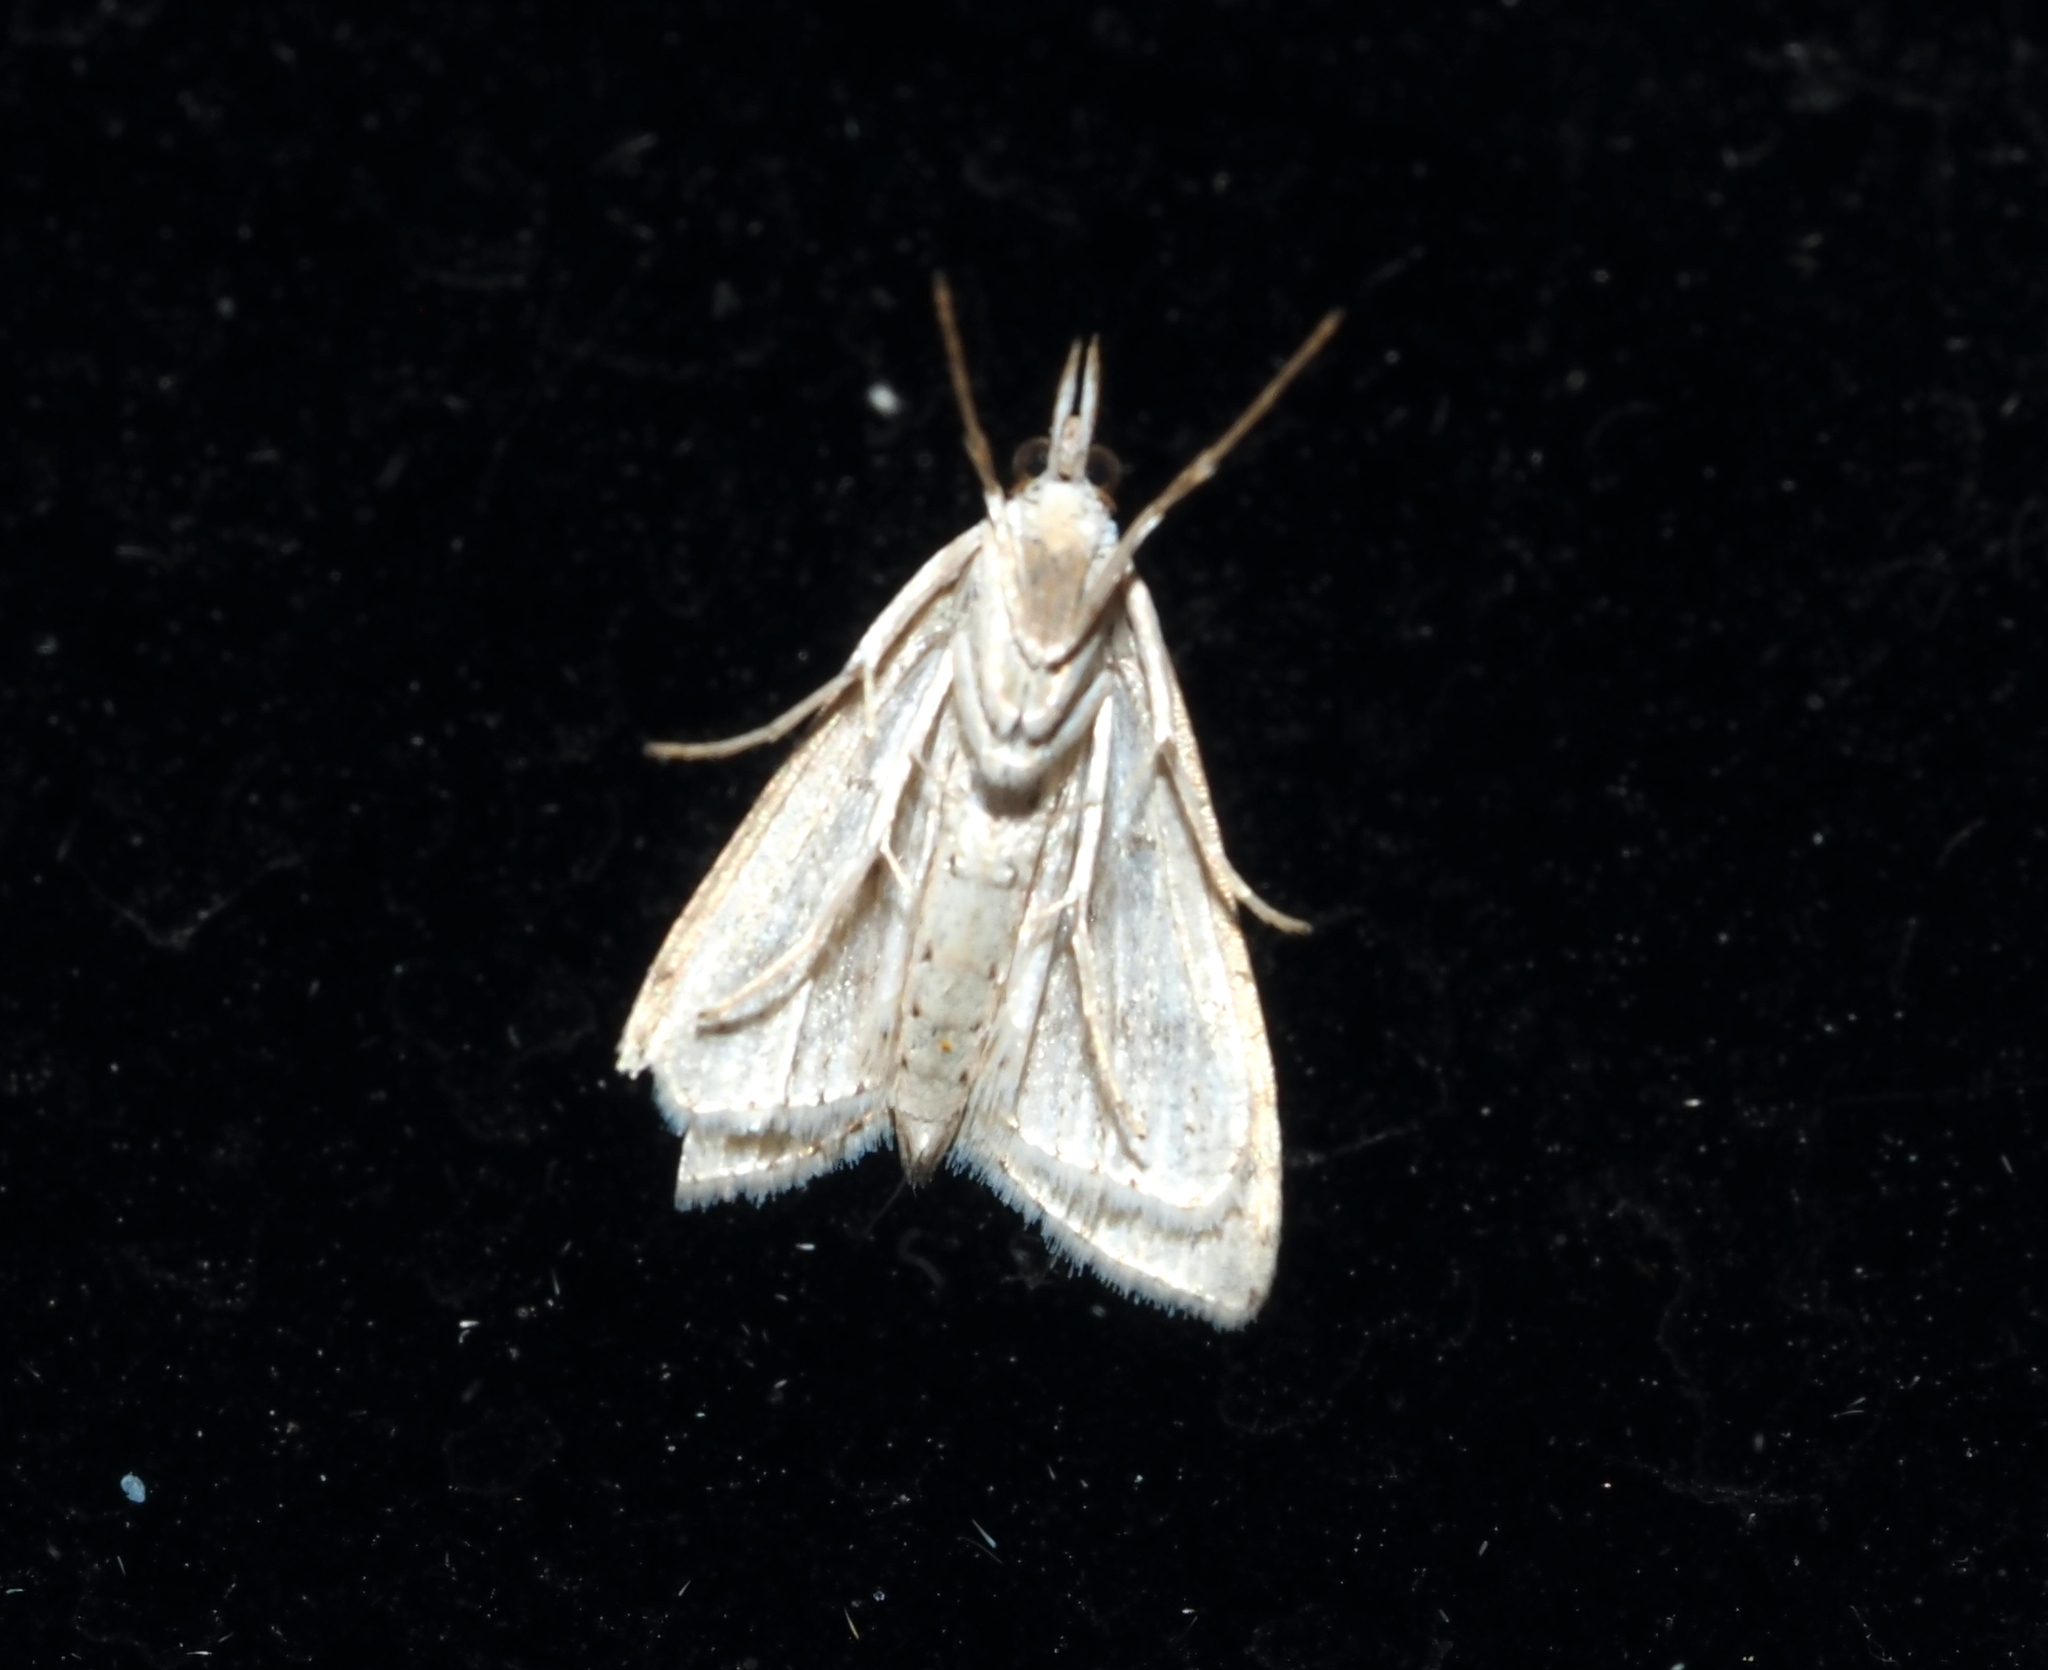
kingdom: Animalia
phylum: Arthropoda
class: Insecta
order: Lepidoptera
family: Crambidae
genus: Udea
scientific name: Udea rubigalis
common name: Celery leaftier moth
